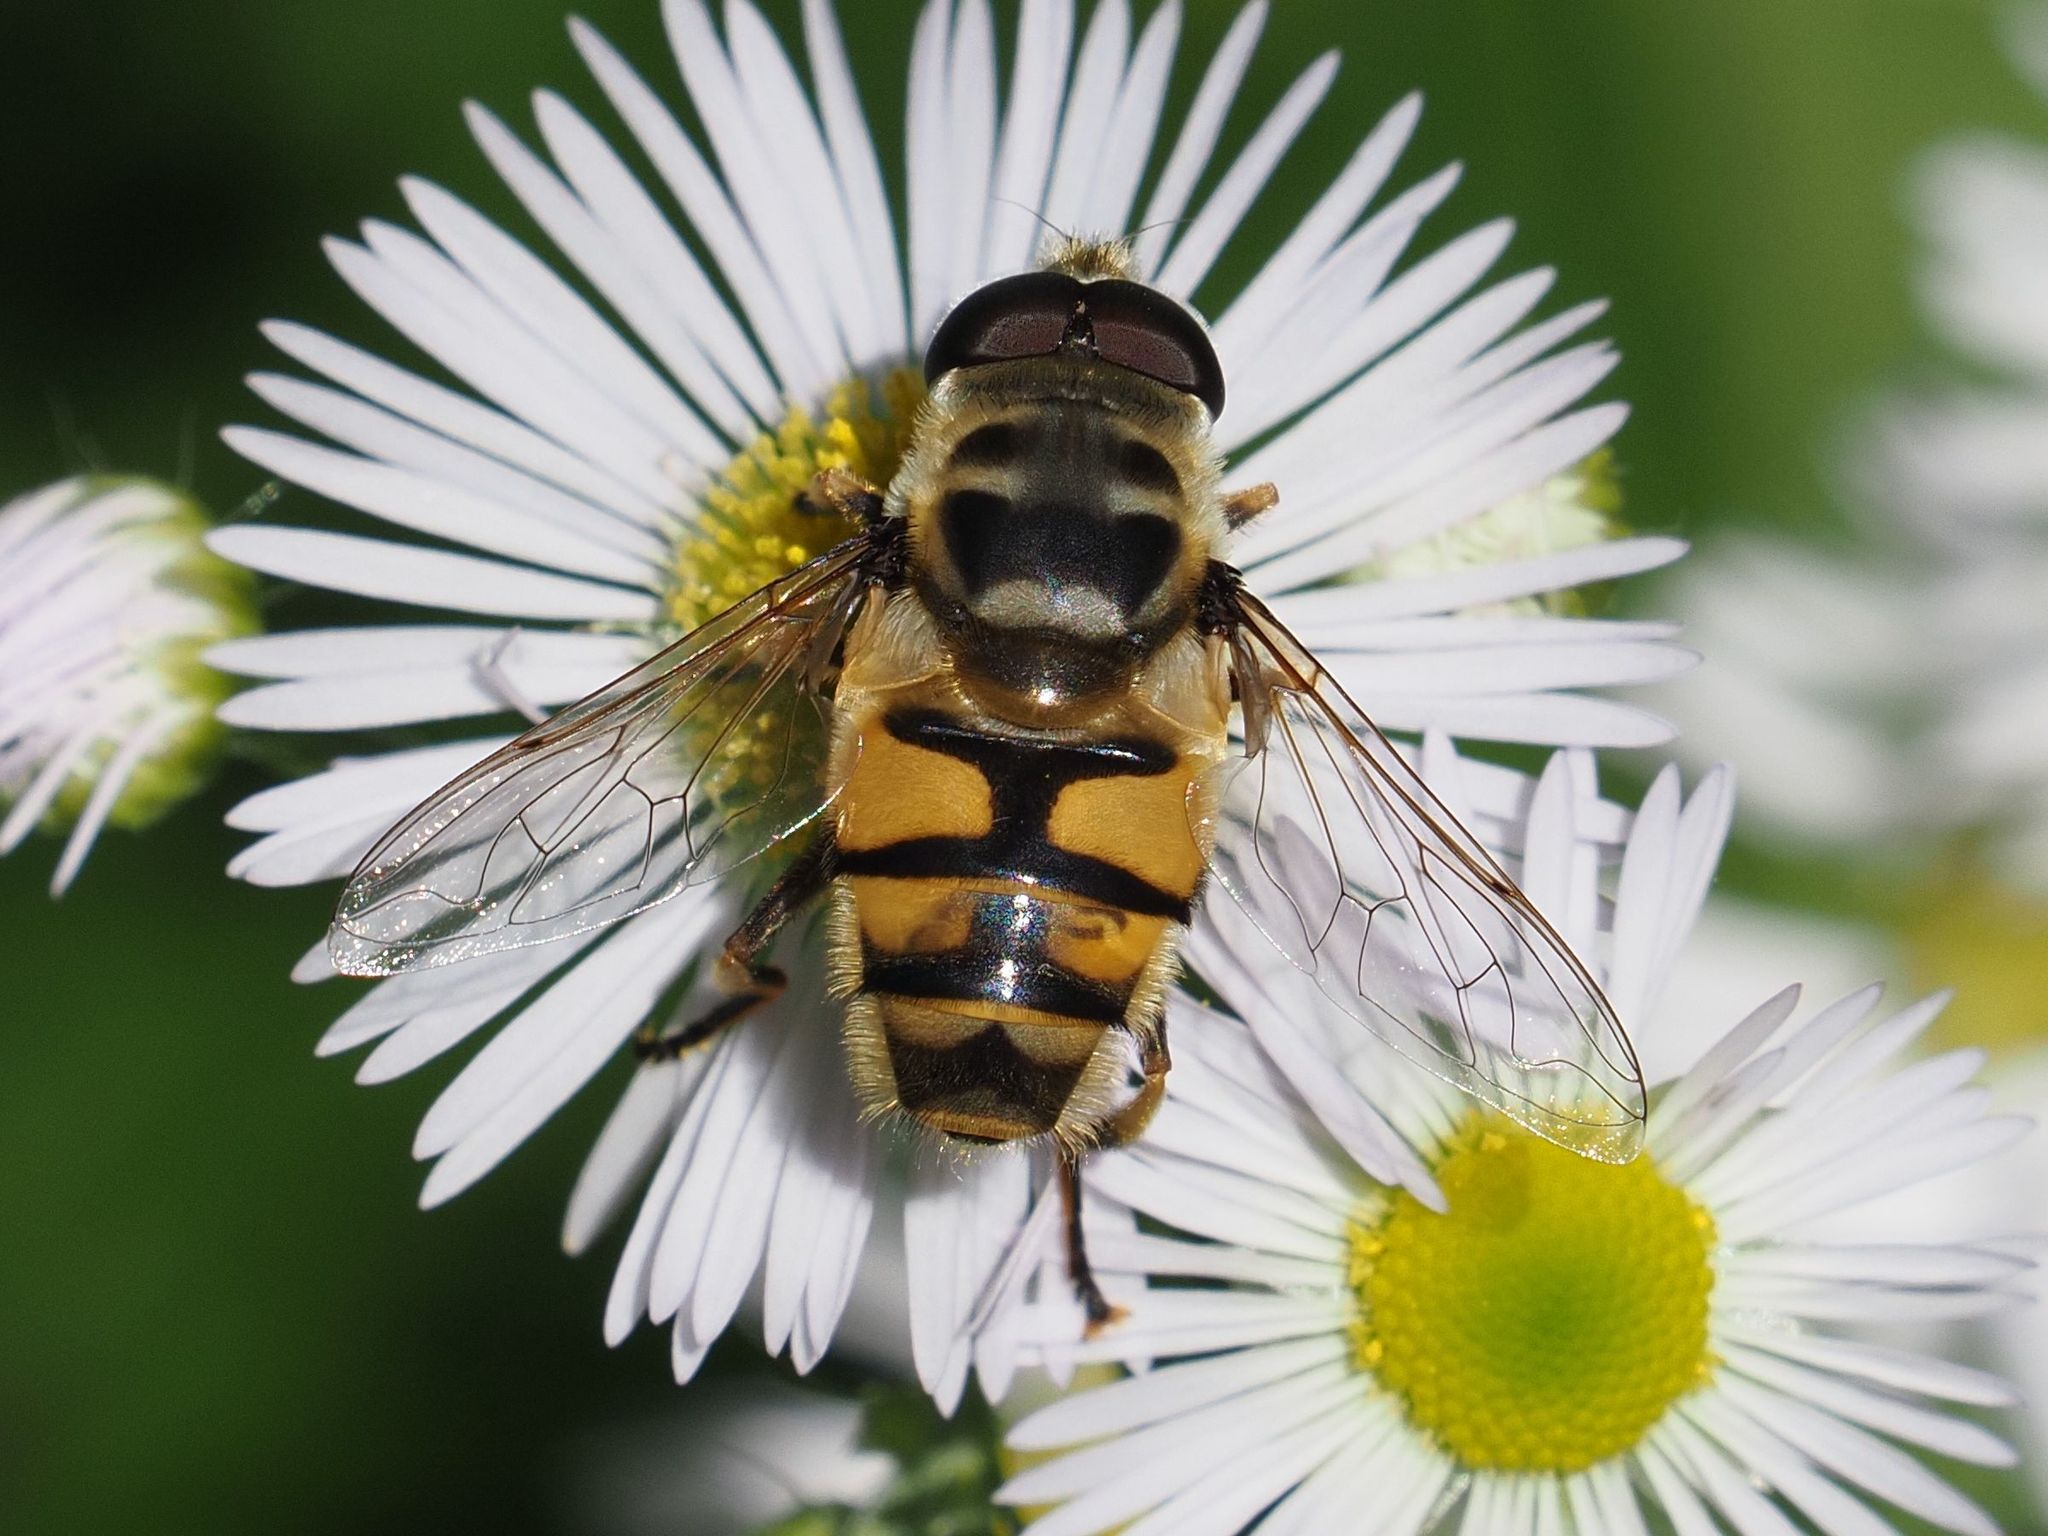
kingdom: Animalia
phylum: Arthropoda
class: Insecta
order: Diptera
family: Syrphidae
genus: Myathropa
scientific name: Myathropa florea
